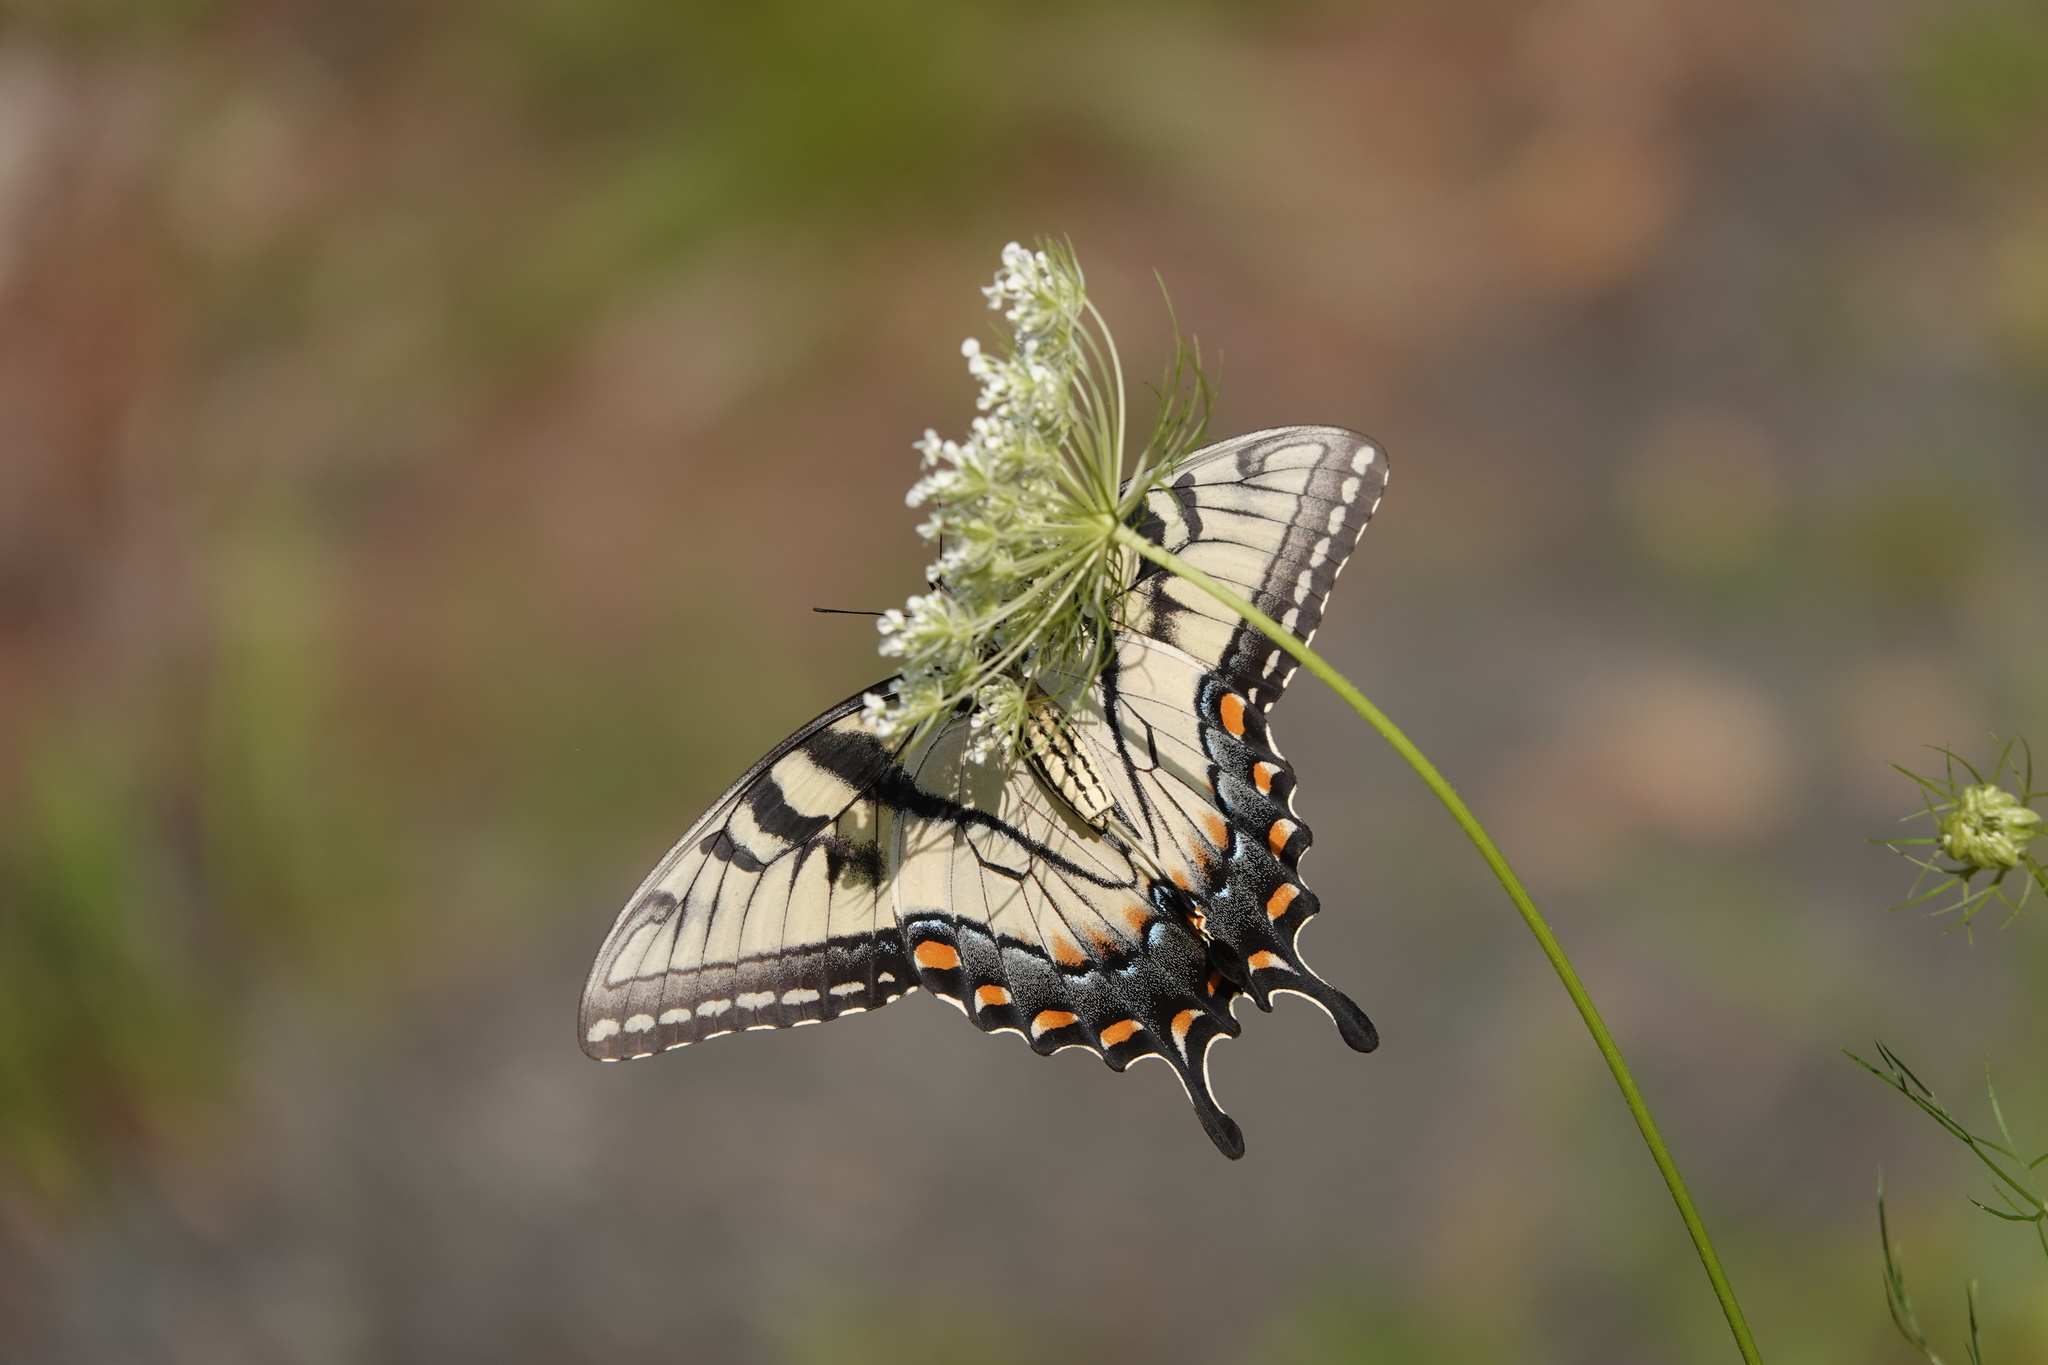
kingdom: Animalia
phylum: Arthropoda
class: Insecta
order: Lepidoptera
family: Papilionidae
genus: Papilio
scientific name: Papilio glaucus
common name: Tiger swallowtail
